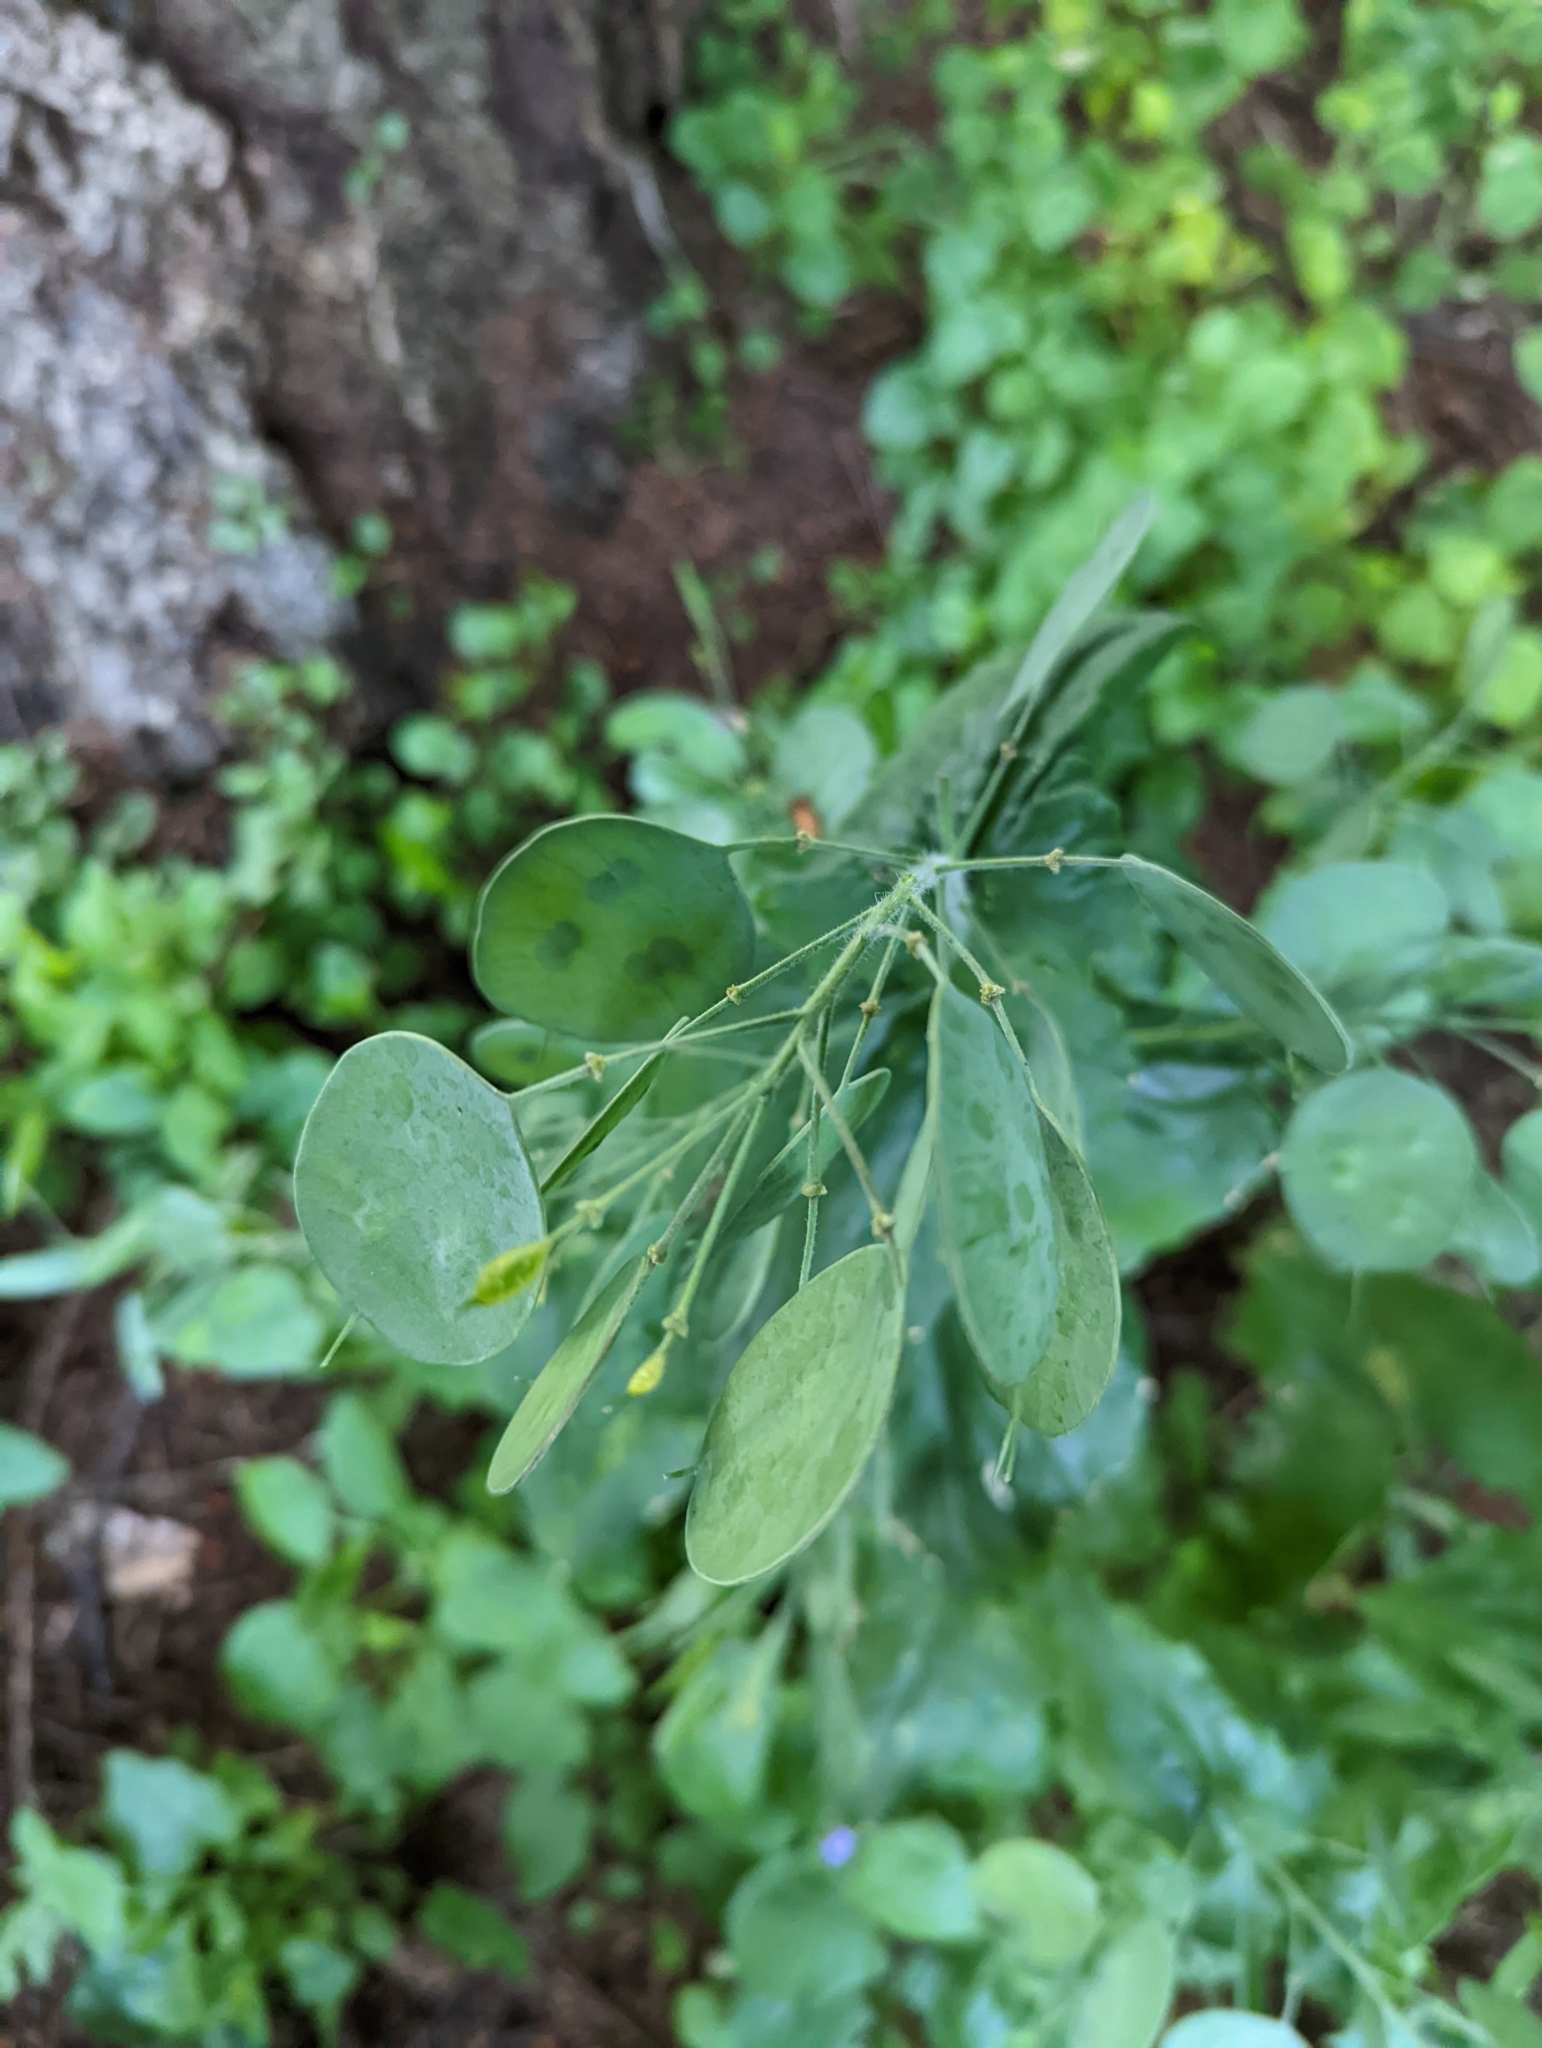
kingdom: Plantae
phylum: Tracheophyta
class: Magnoliopsida
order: Brassicales
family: Brassicaceae
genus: Lunaria
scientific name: Lunaria annua
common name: Honesty
